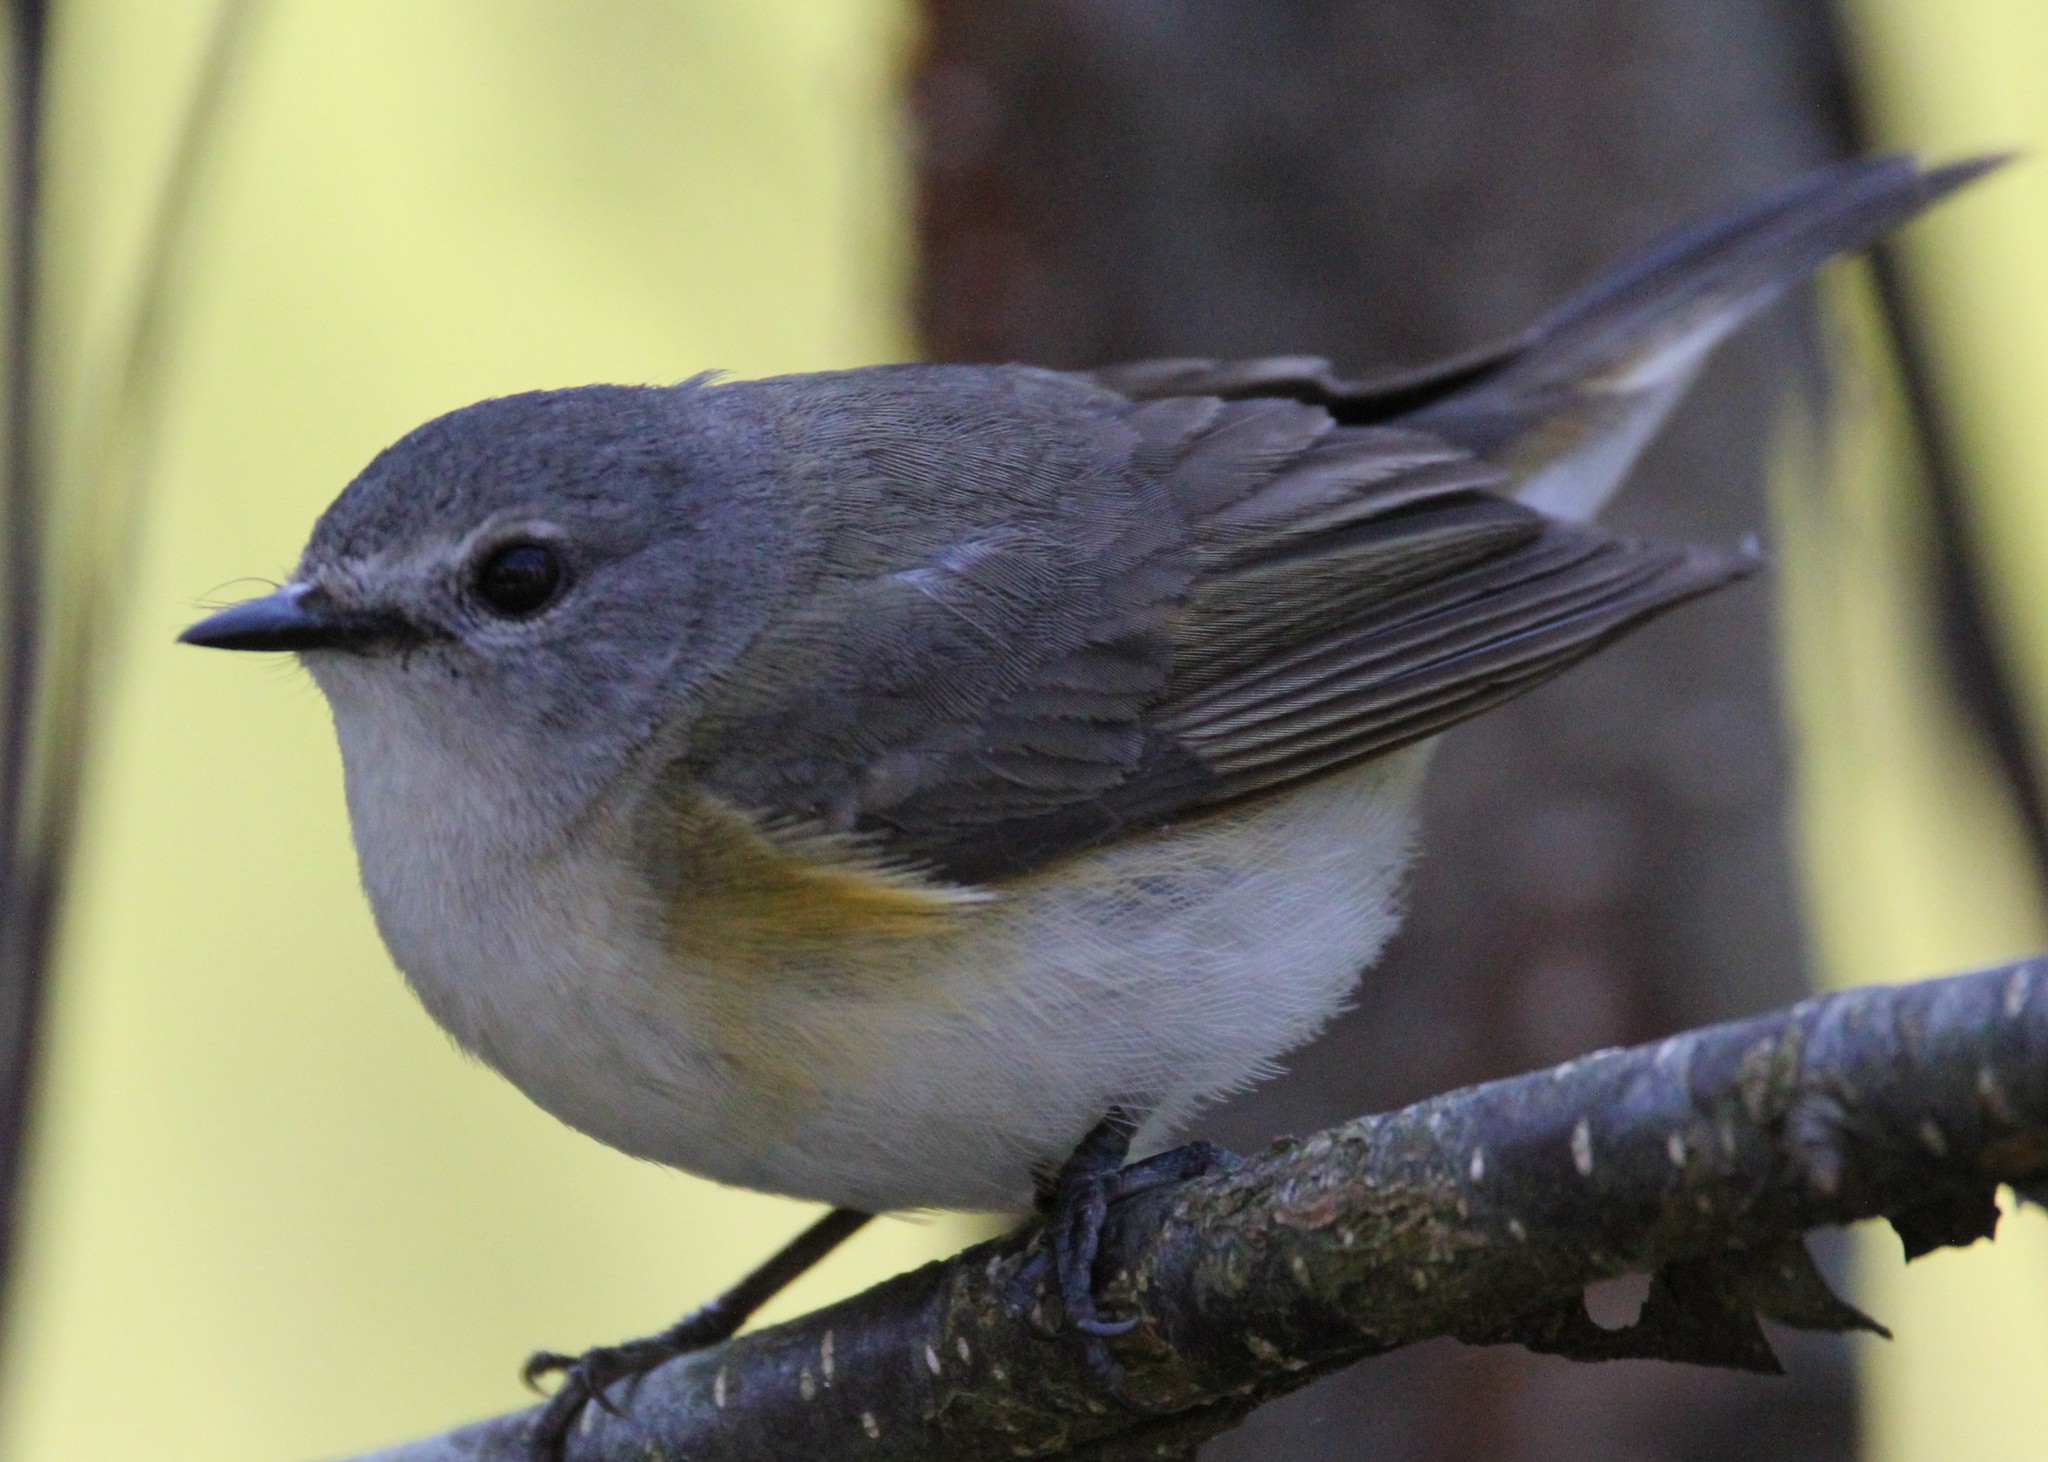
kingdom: Animalia
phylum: Chordata
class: Aves
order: Passeriformes
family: Parulidae
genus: Setophaga
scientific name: Setophaga ruticilla
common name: American redstart
